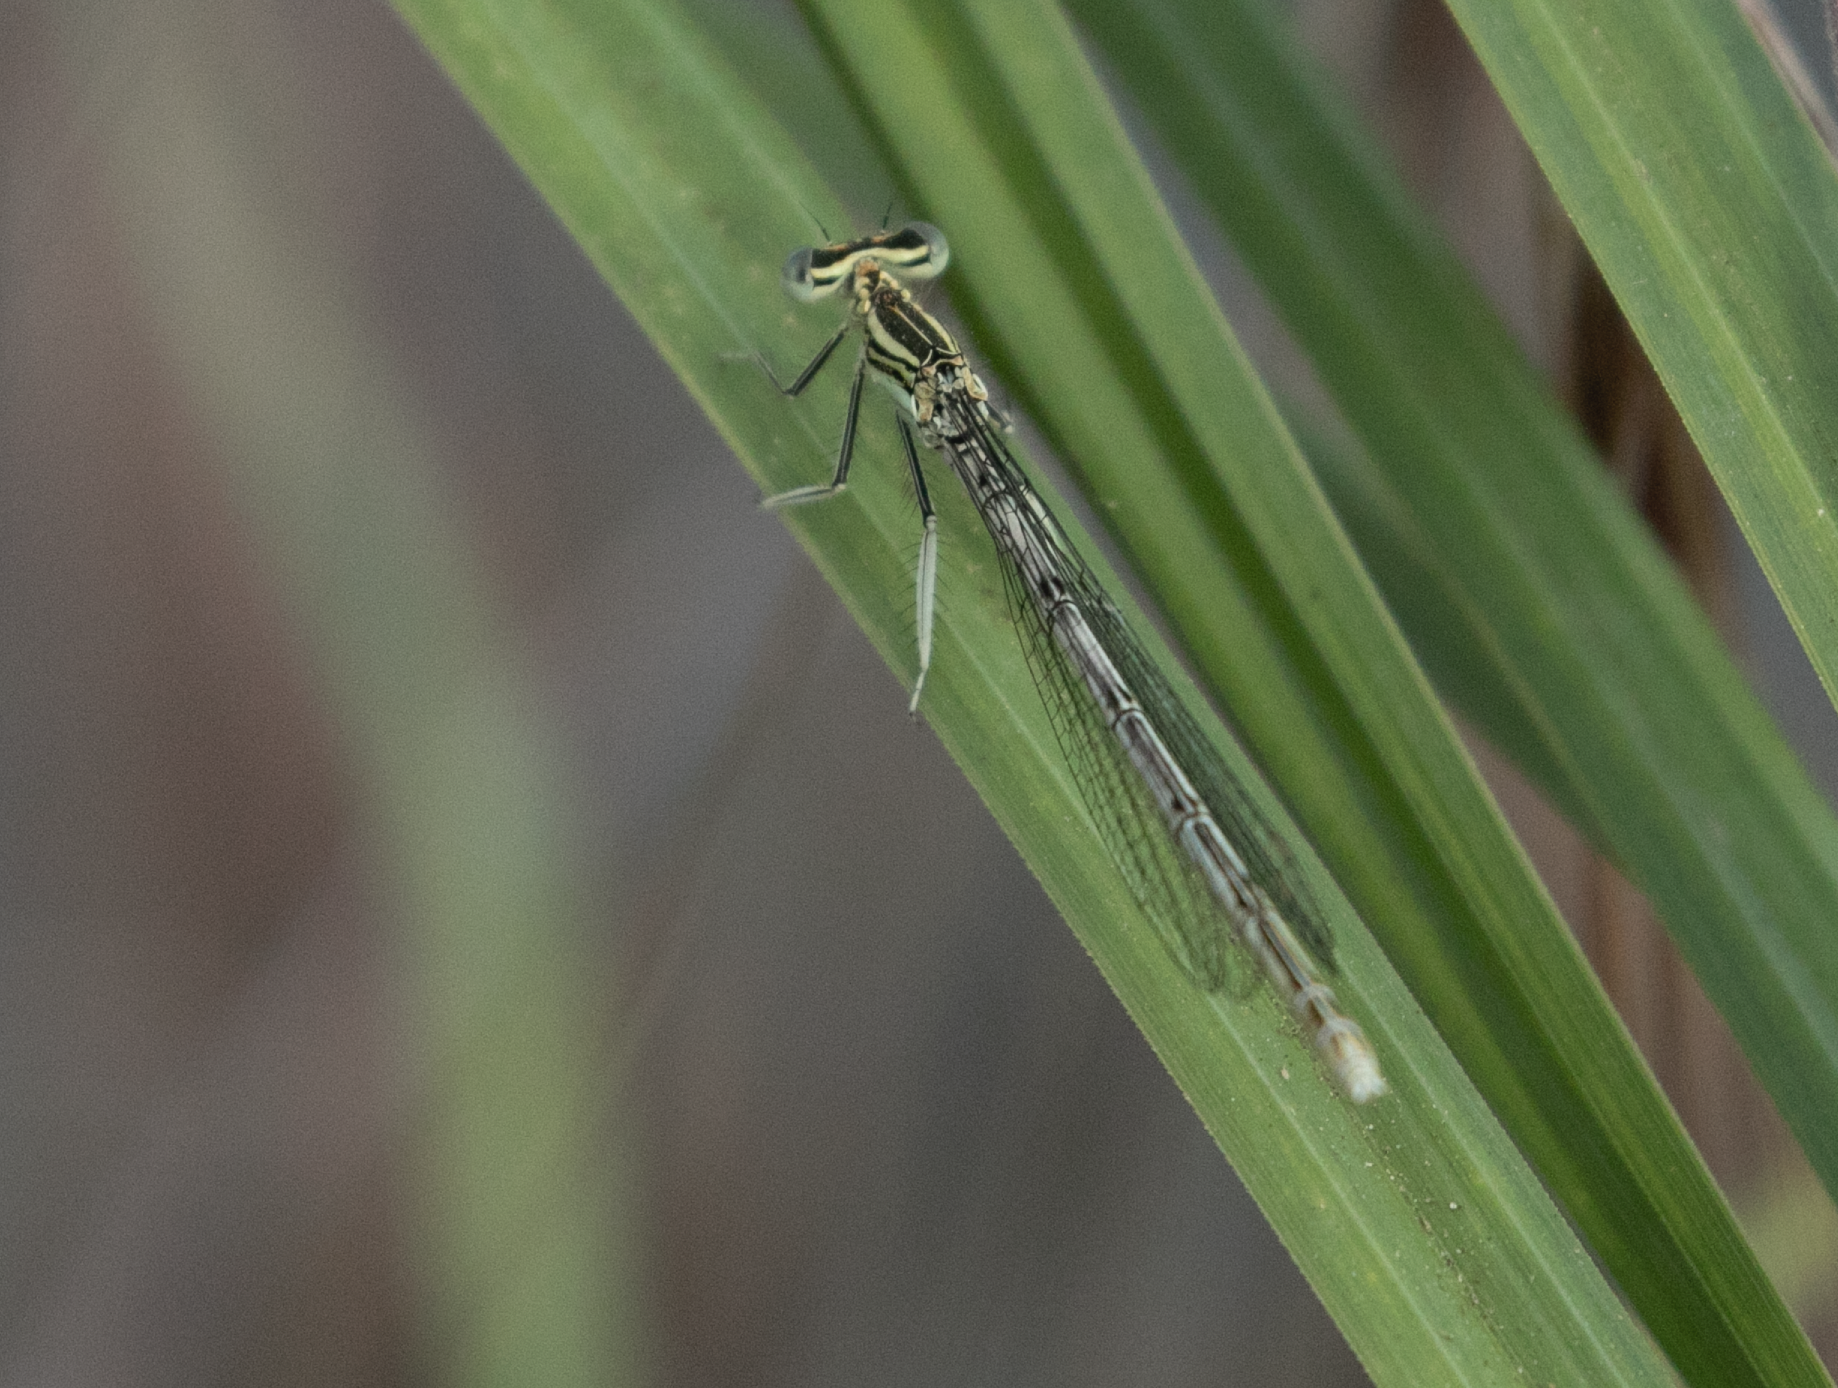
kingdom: Animalia
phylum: Arthropoda
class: Insecta
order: Odonata
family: Platycnemididae
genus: Platycnemis
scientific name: Platycnemis pennipes
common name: White-legged damselfly
